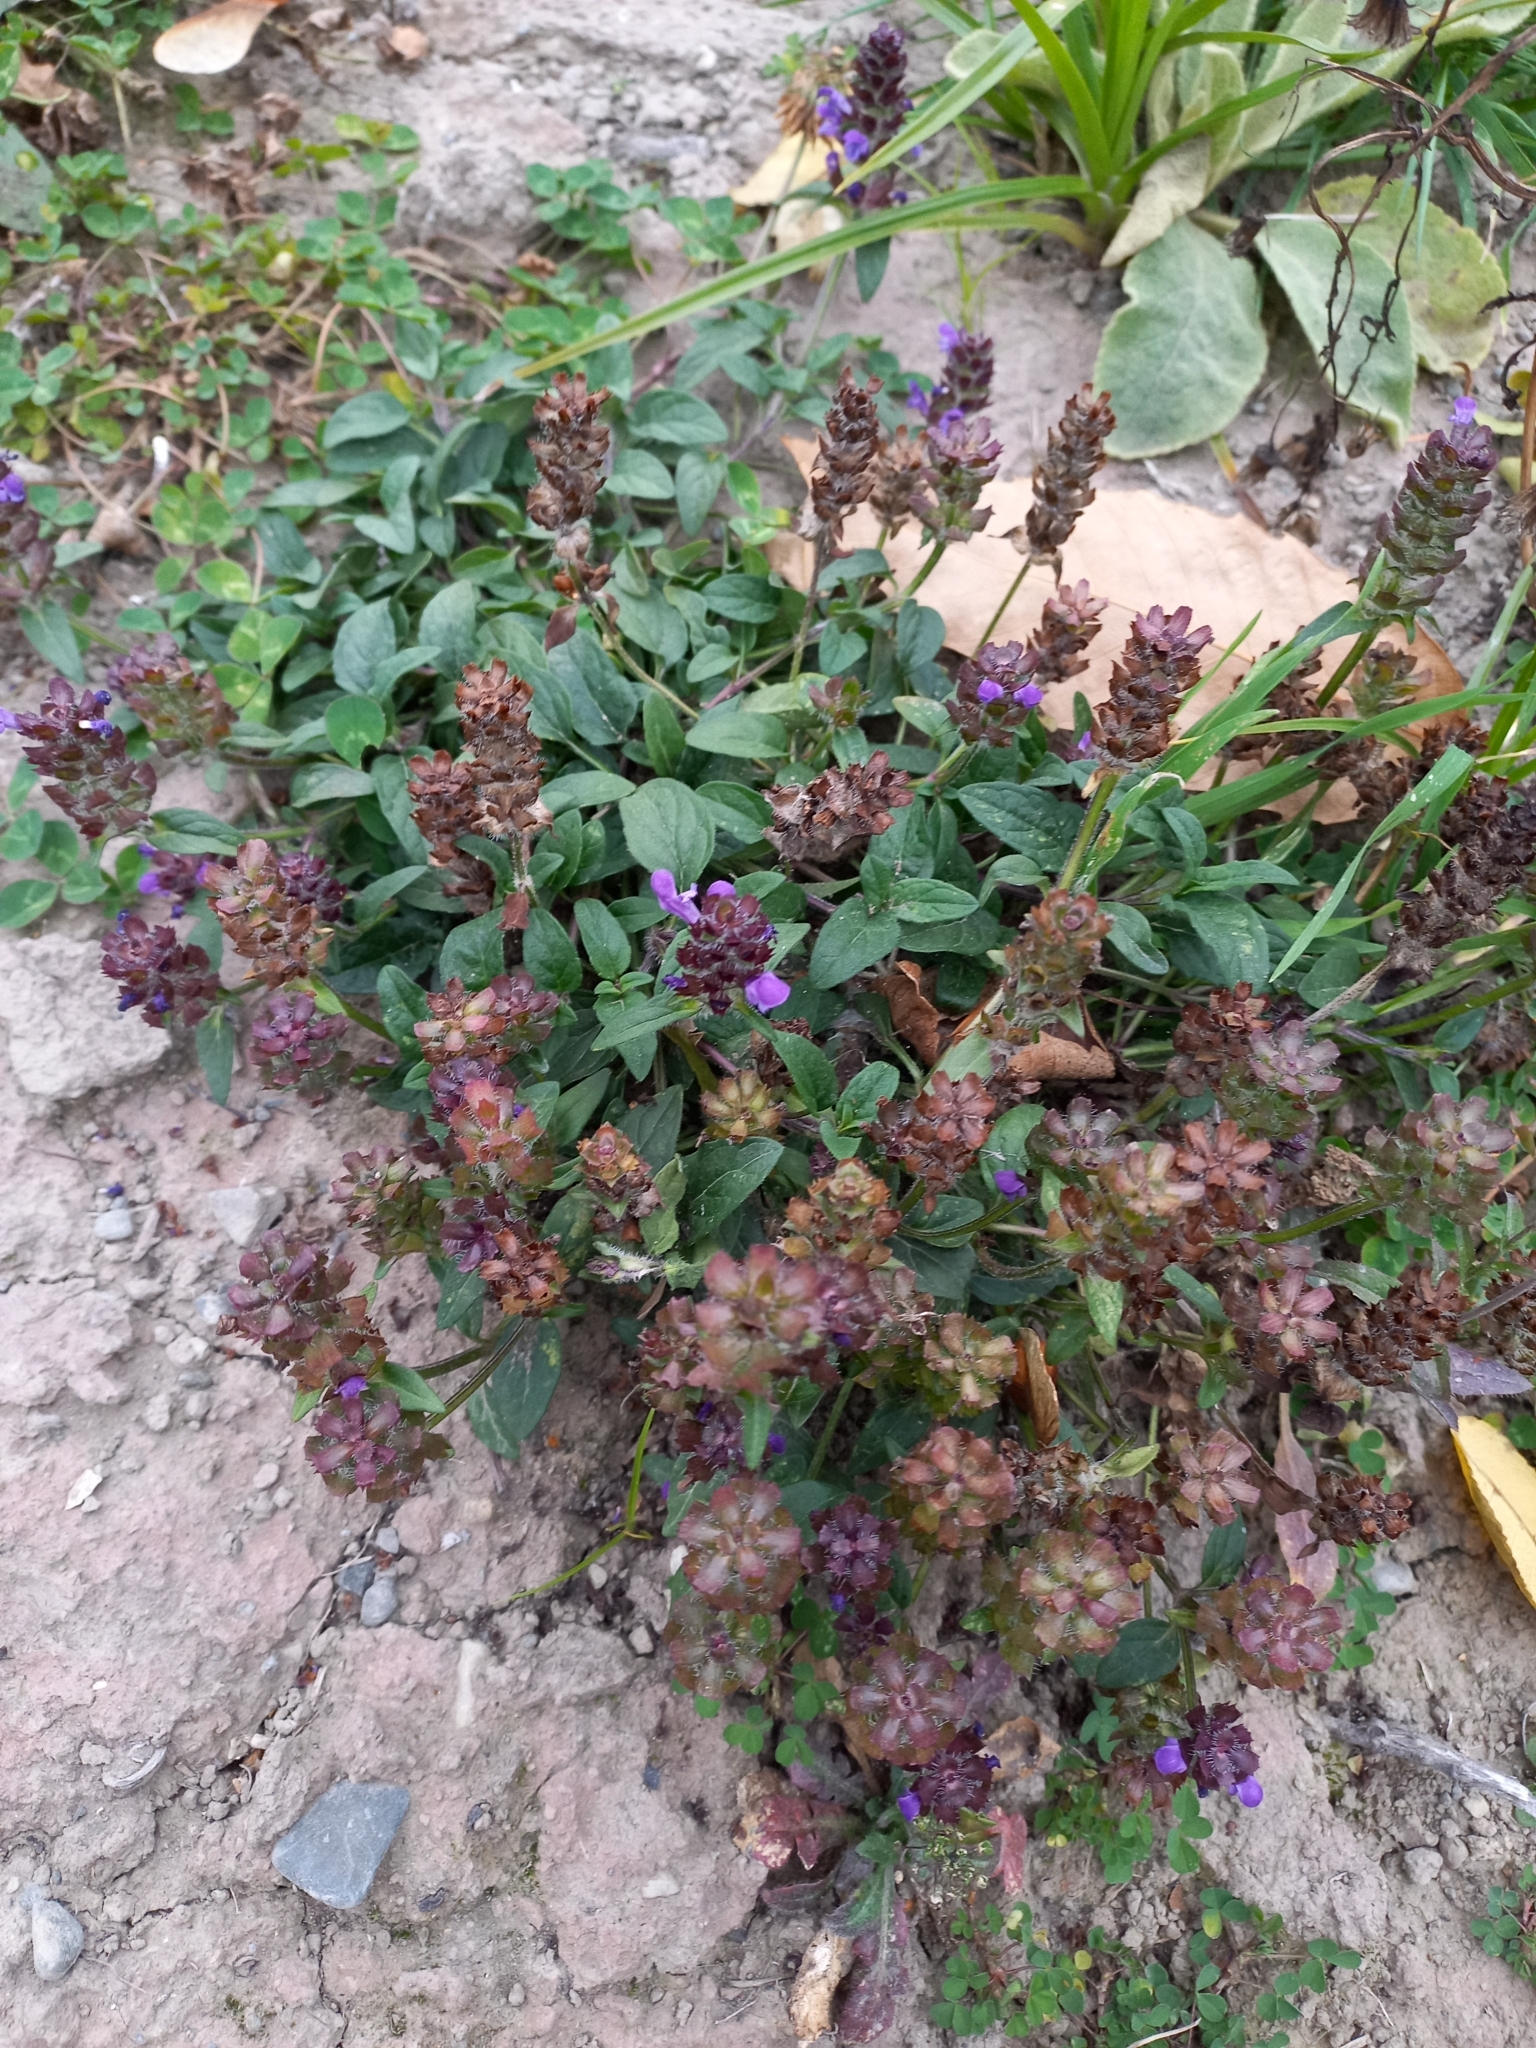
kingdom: Plantae
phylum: Tracheophyta
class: Magnoliopsida
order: Lamiales
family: Lamiaceae
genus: Prunella
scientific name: Prunella vulgaris
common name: Heal-all
